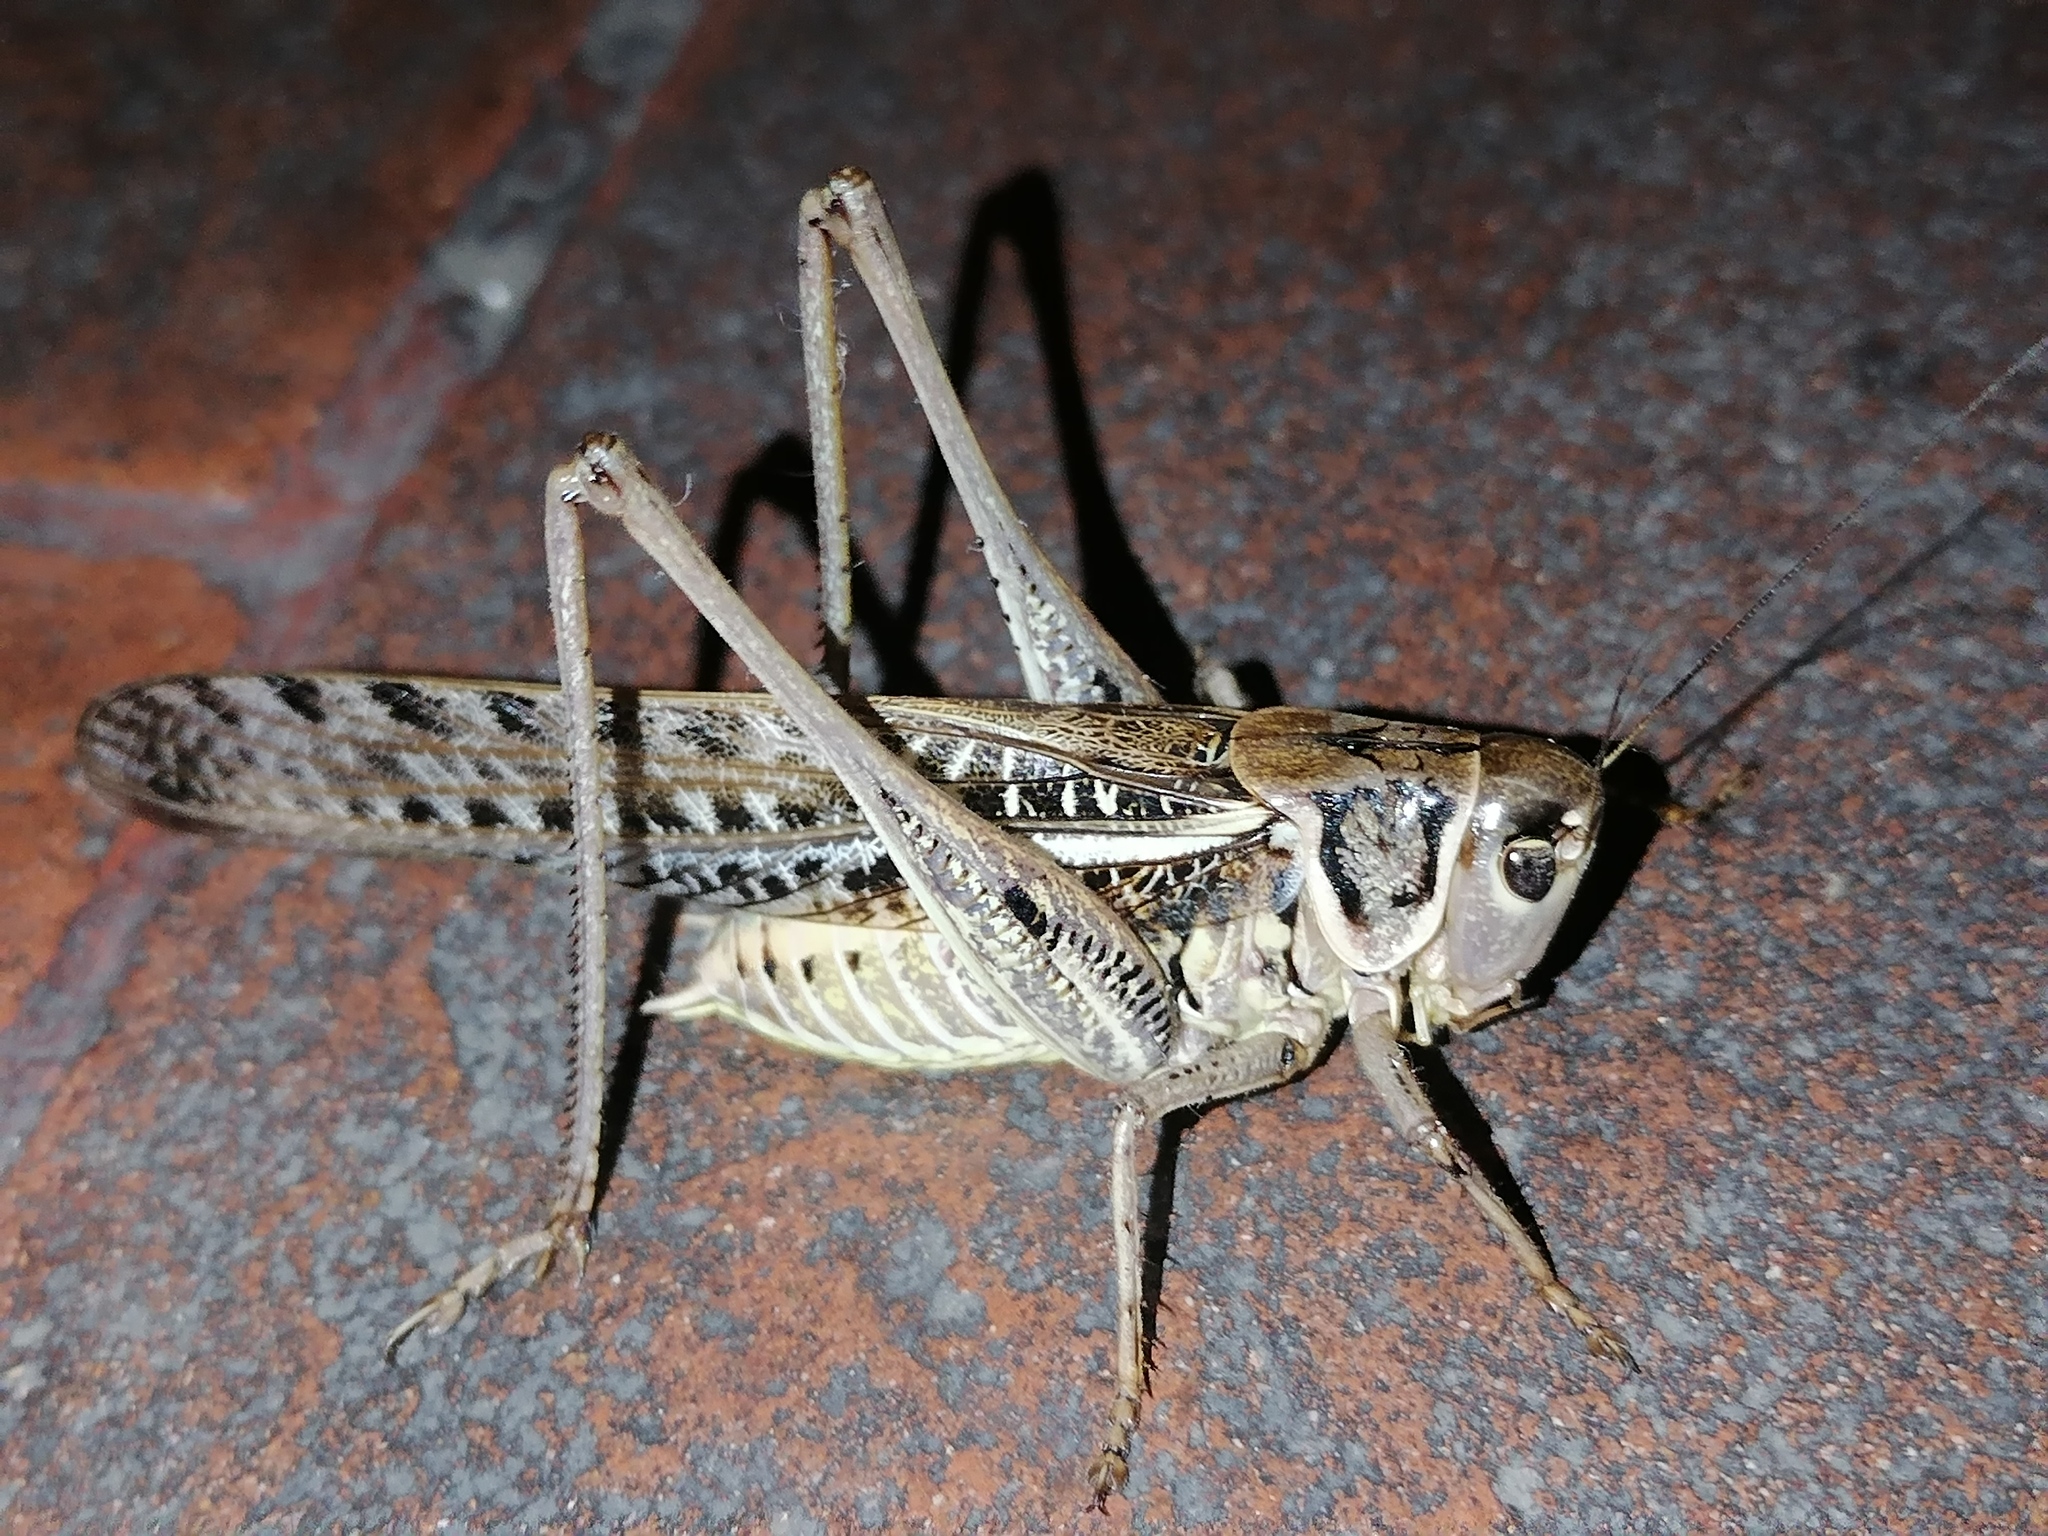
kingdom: Animalia
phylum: Arthropoda
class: Insecta
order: Orthoptera
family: Tettigoniidae
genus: Decticus
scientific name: Decticus albifrons
